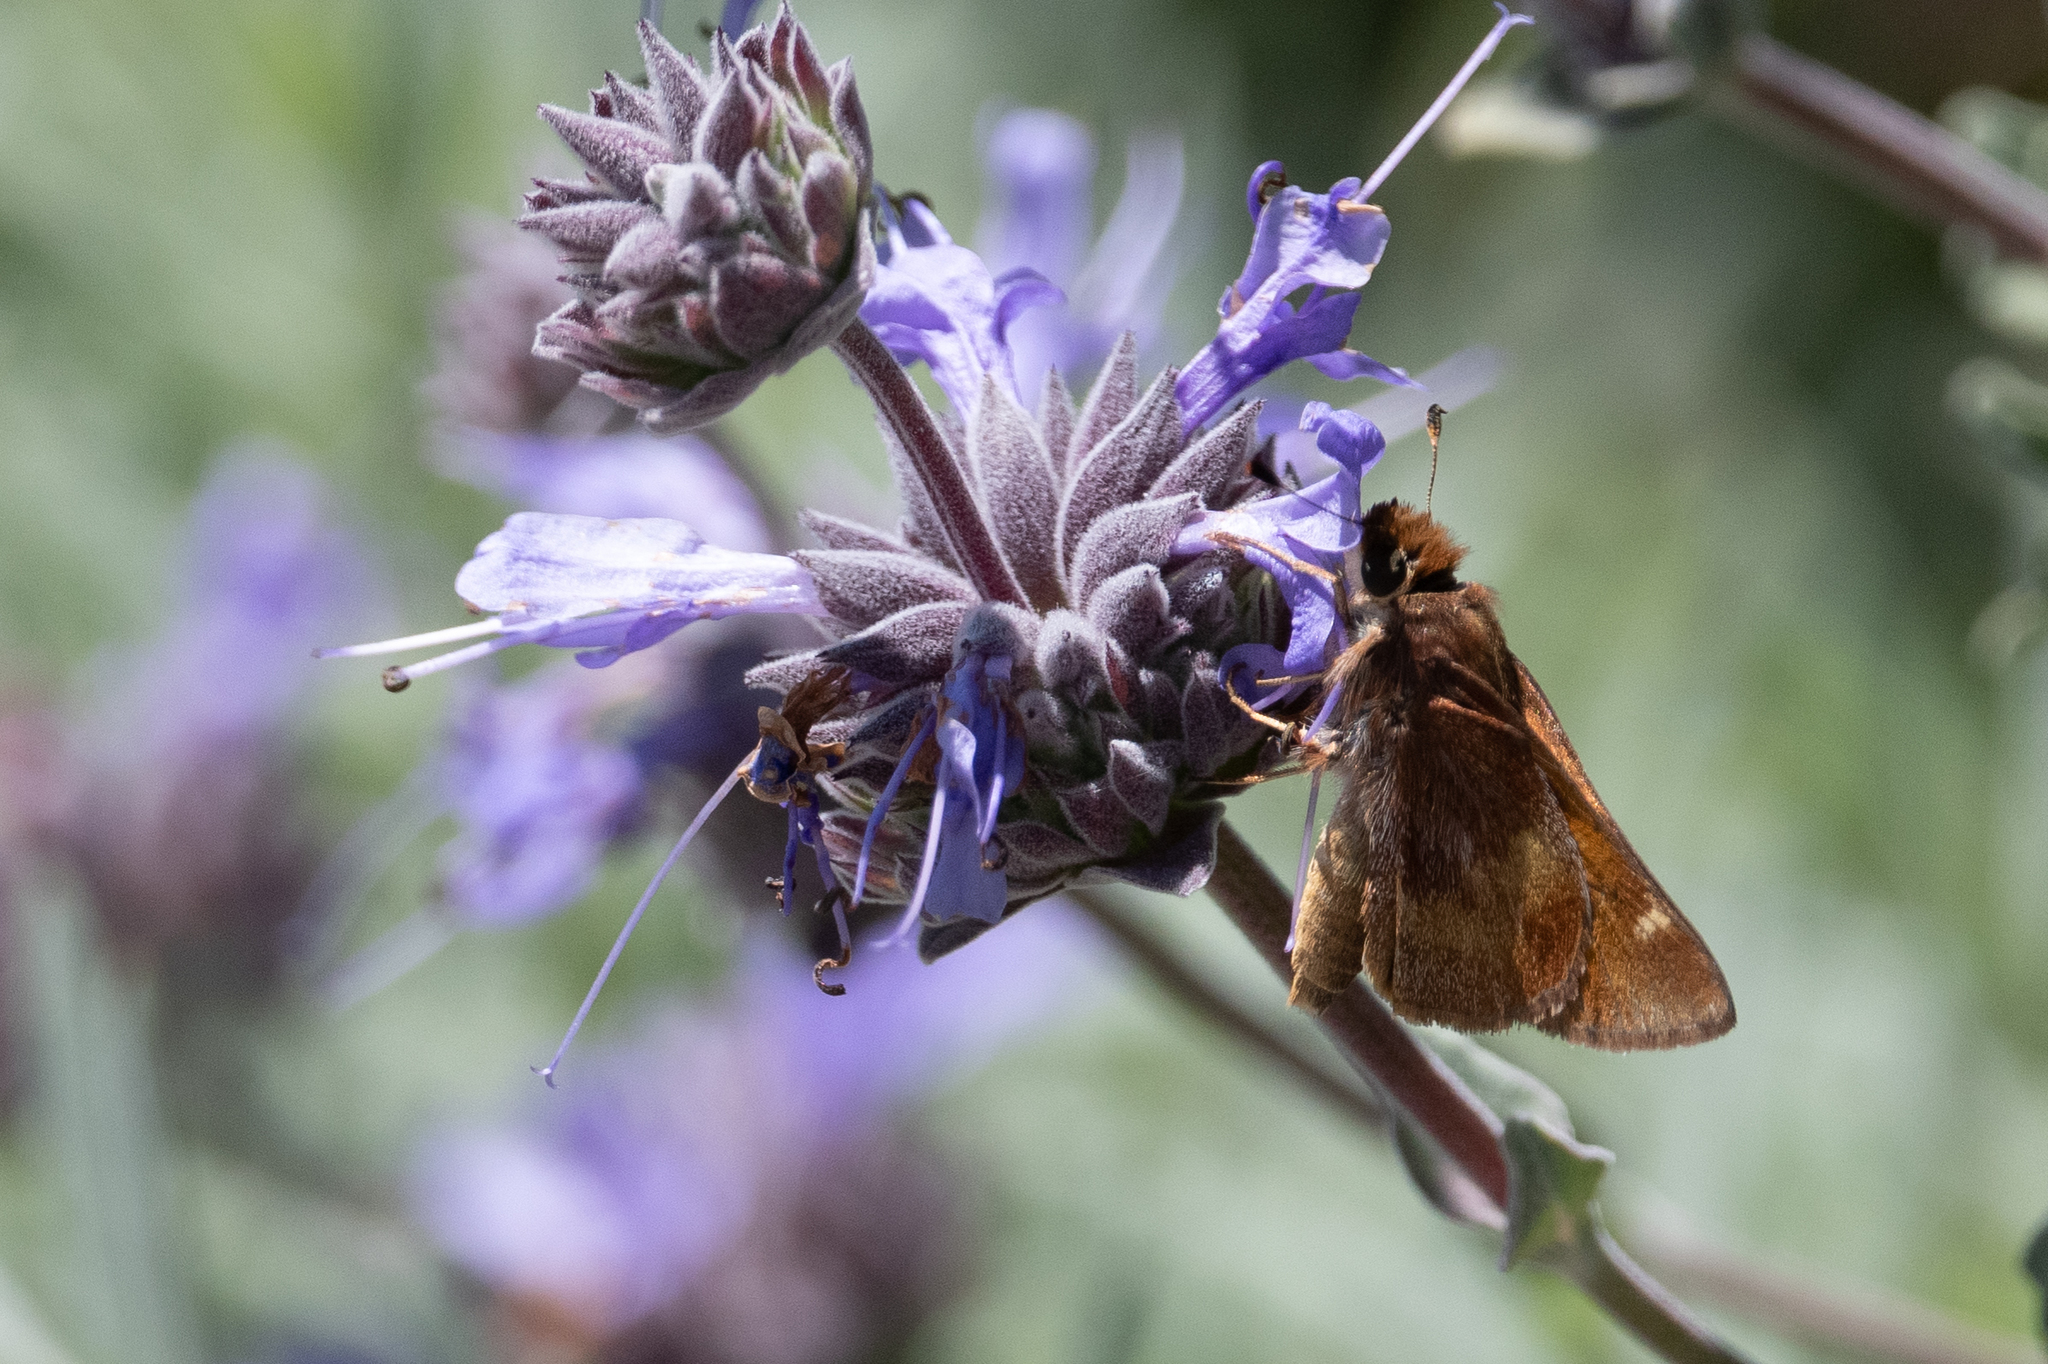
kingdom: Animalia
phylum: Arthropoda
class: Insecta
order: Lepidoptera
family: Hesperiidae
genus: Lon
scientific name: Lon melane
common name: Umber skipper
